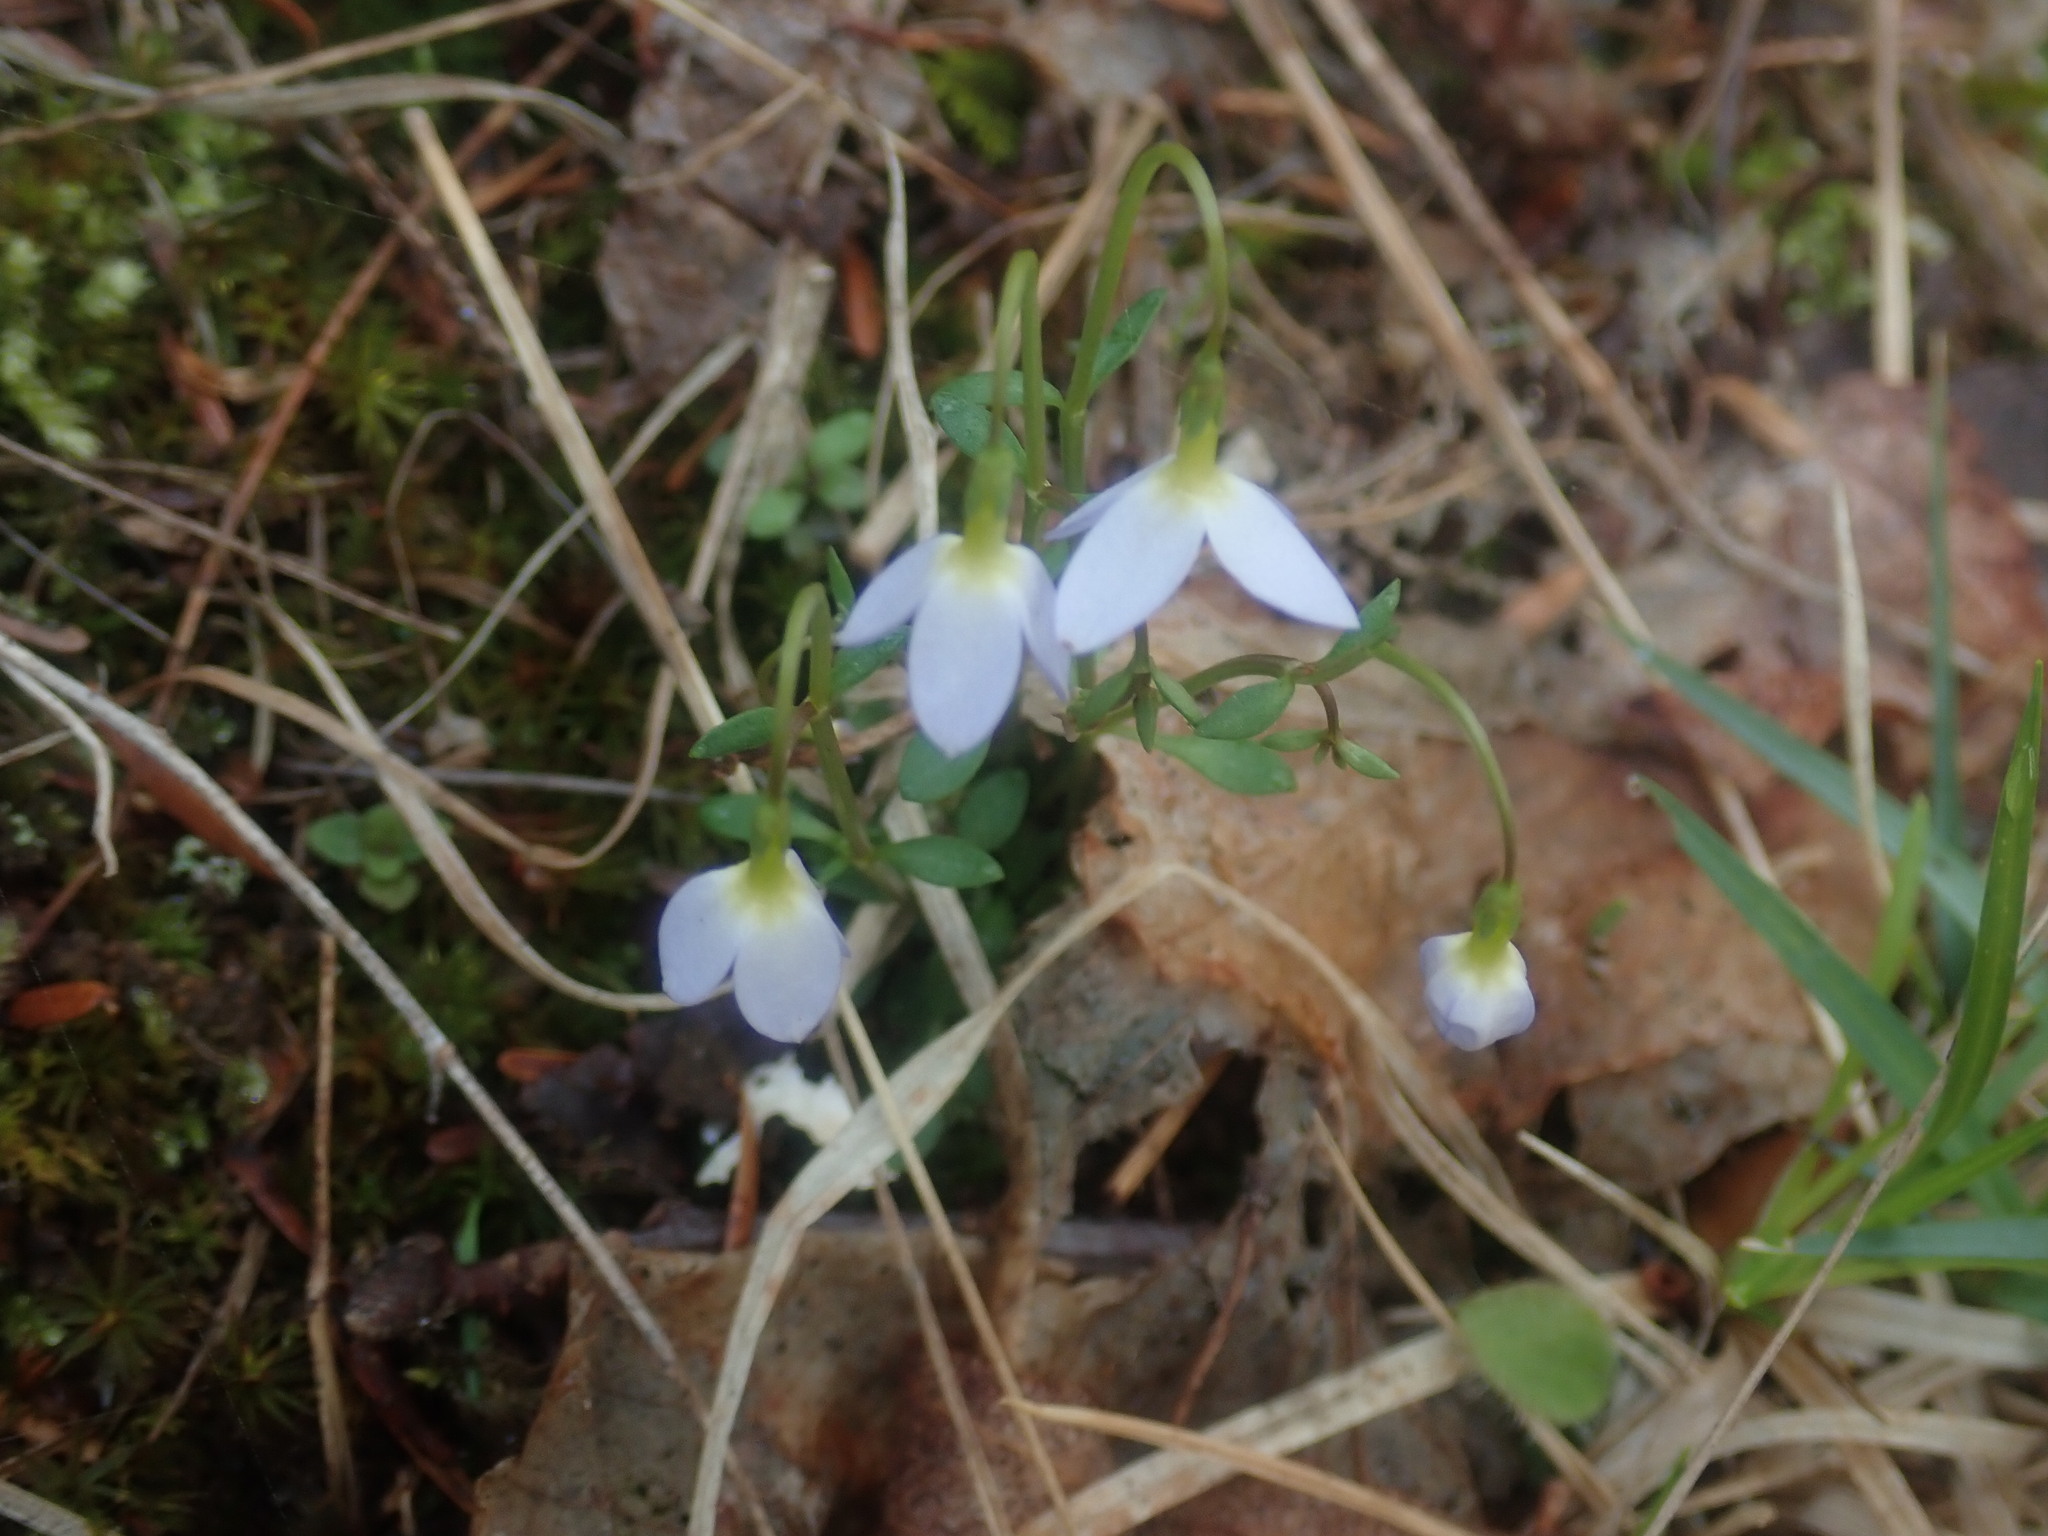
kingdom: Plantae
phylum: Tracheophyta
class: Magnoliopsida
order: Gentianales
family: Rubiaceae
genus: Houstonia
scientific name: Houstonia caerulea
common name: Bluets
